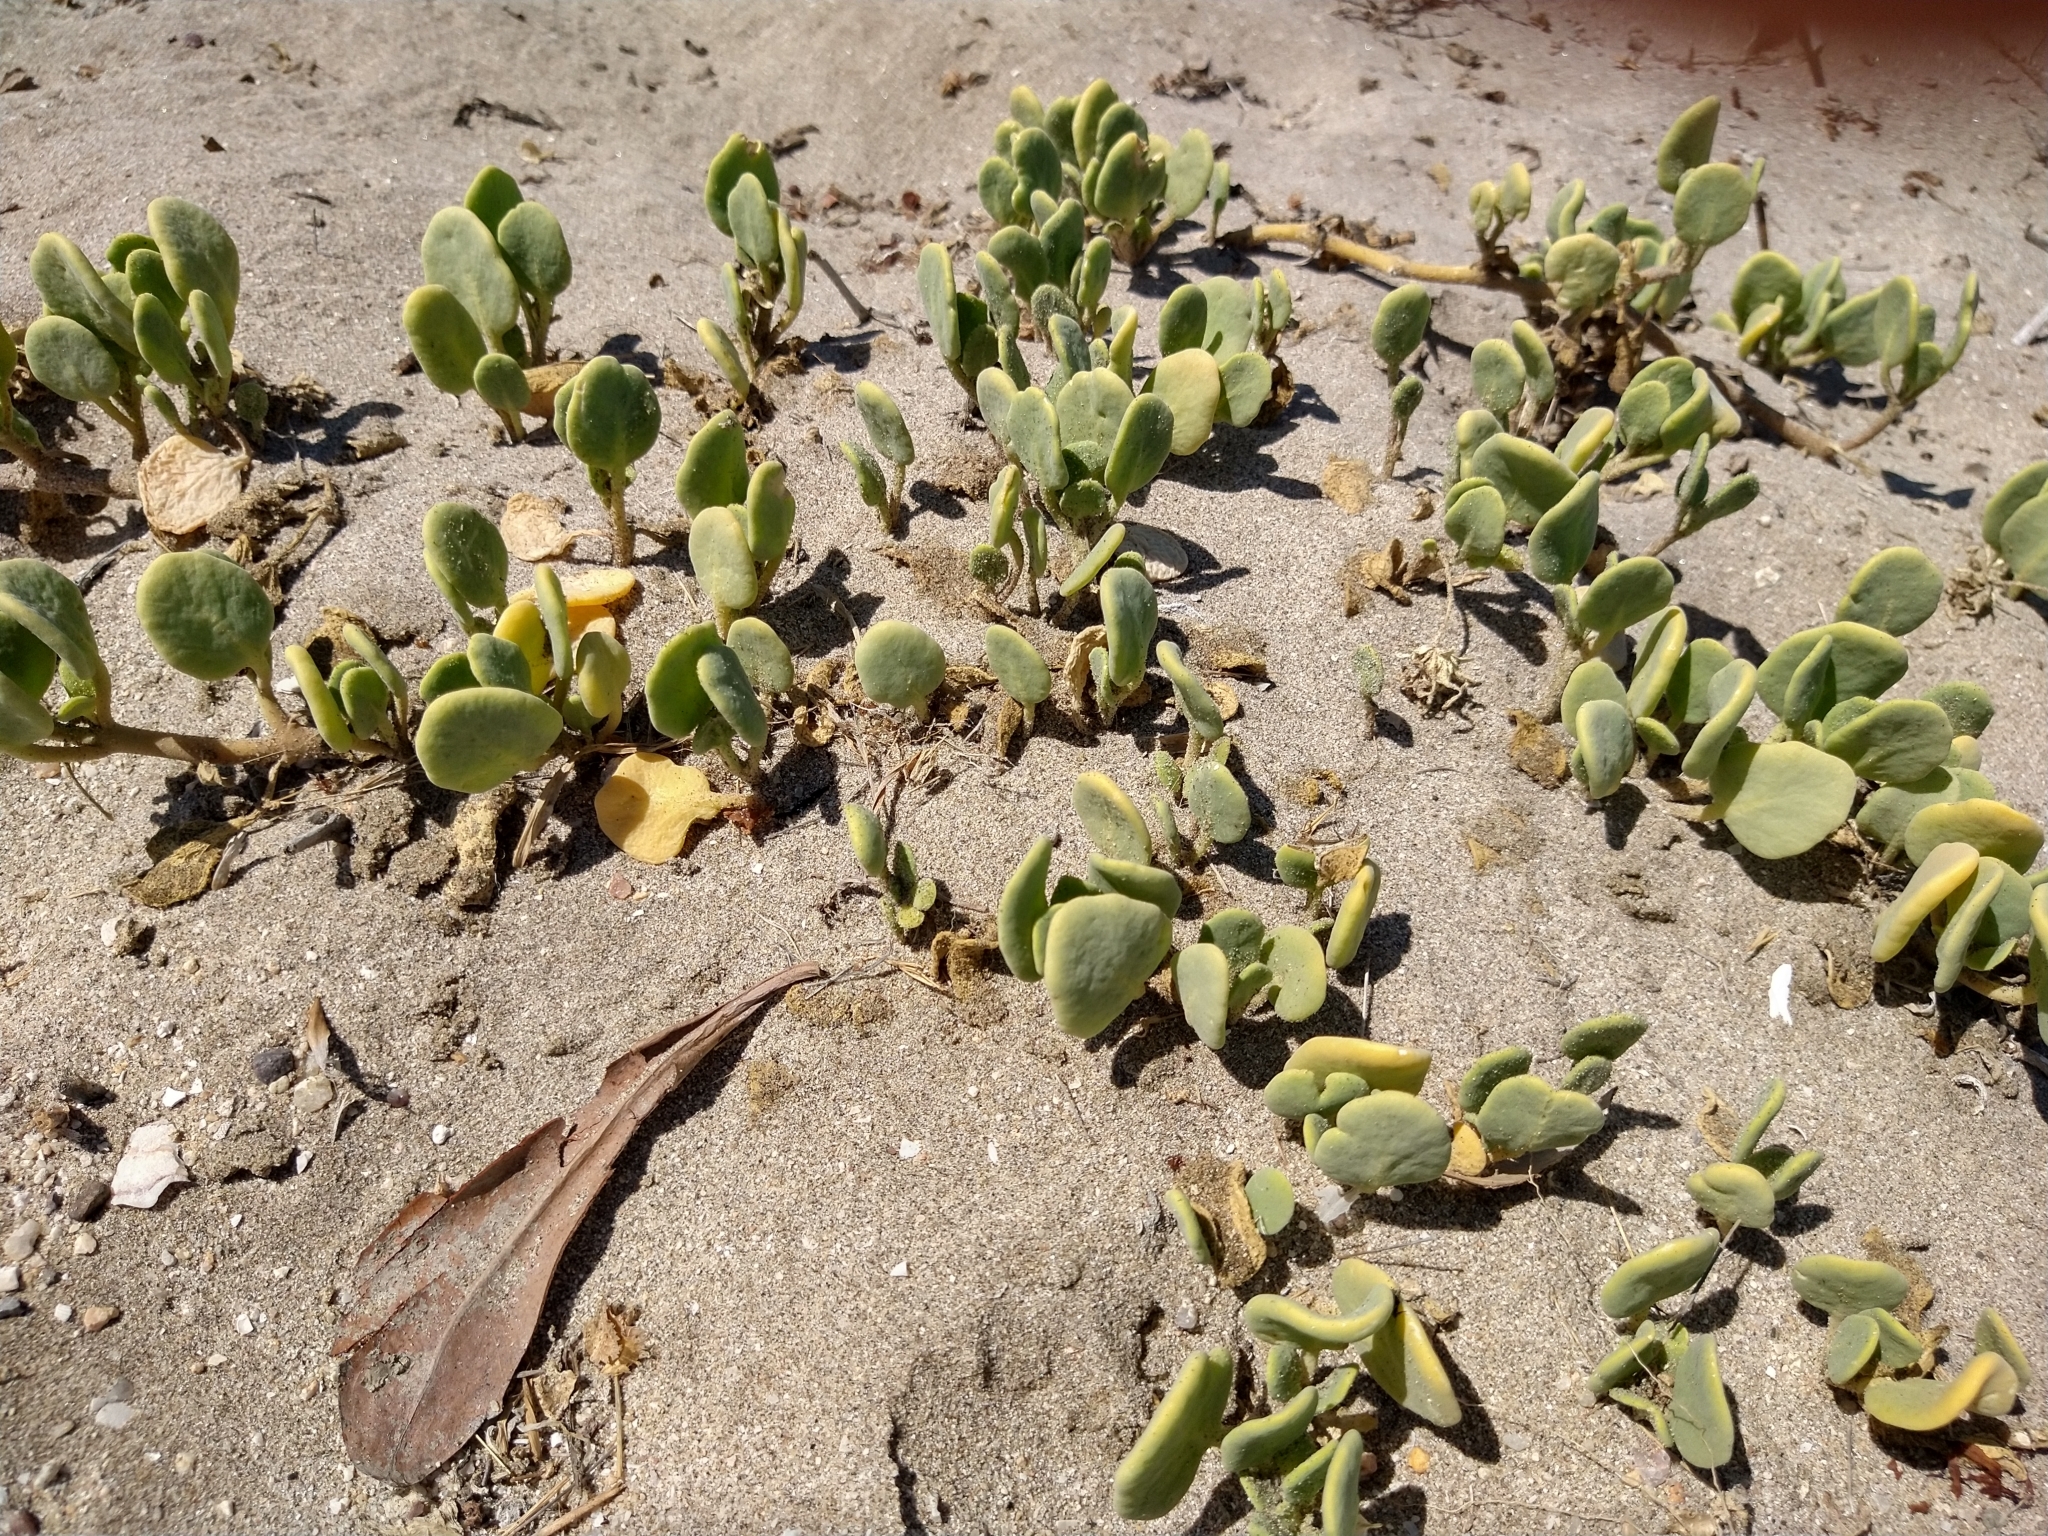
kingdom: Plantae
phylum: Tracheophyta
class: Magnoliopsida
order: Caryophyllales
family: Nyctaginaceae
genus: Abronia
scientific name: Abronia maritima
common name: Red sand-verbena
